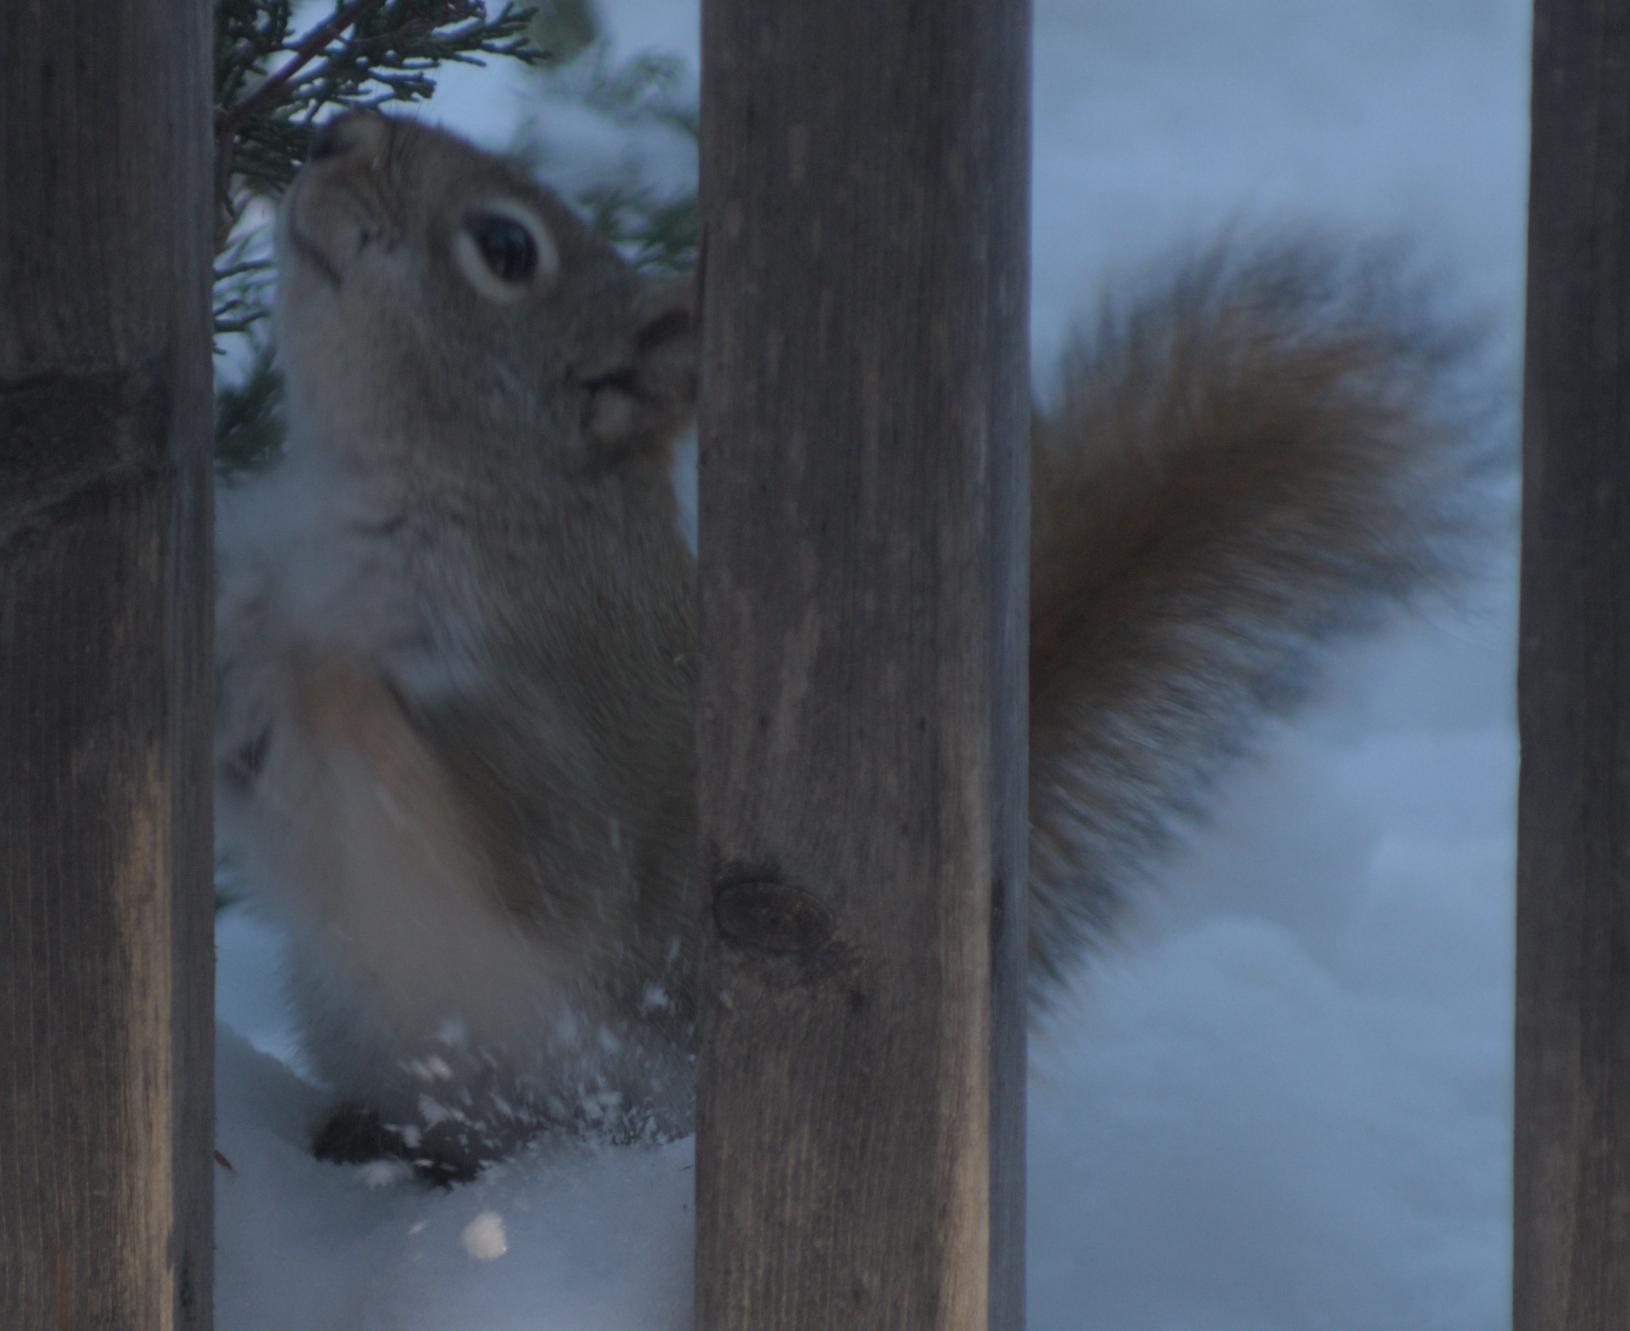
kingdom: Animalia
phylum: Chordata
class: Mammalia
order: Rodentia
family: Sciuridae
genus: Tamiasciurus
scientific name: Tamiasciurus hudsonicus
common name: Red squirrel
